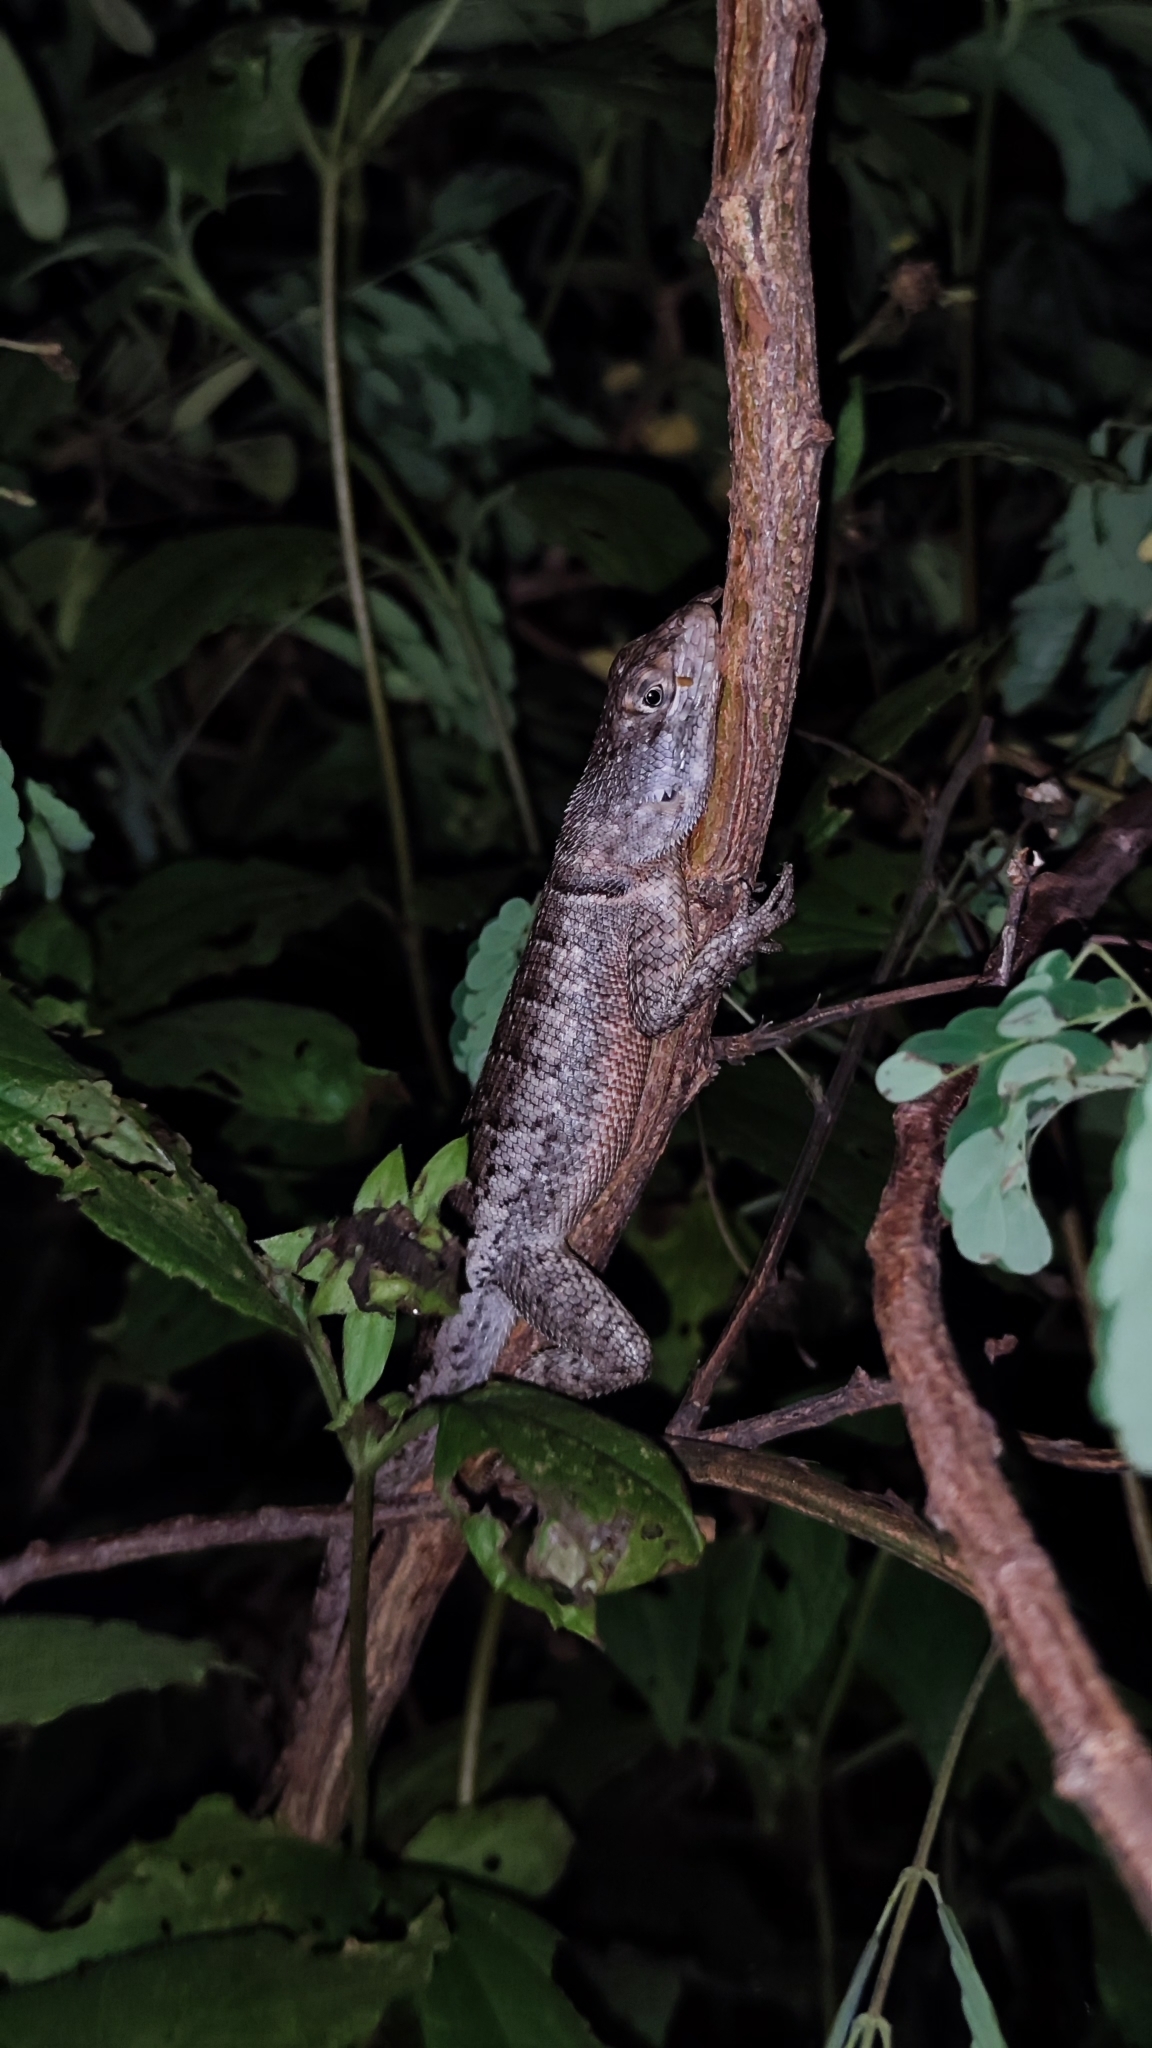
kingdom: Animalia
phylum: Chordata
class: Squamata
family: Tropiduridae
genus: Tropidurus
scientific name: Tropidurus hispidus
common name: Peters' lava lizard
